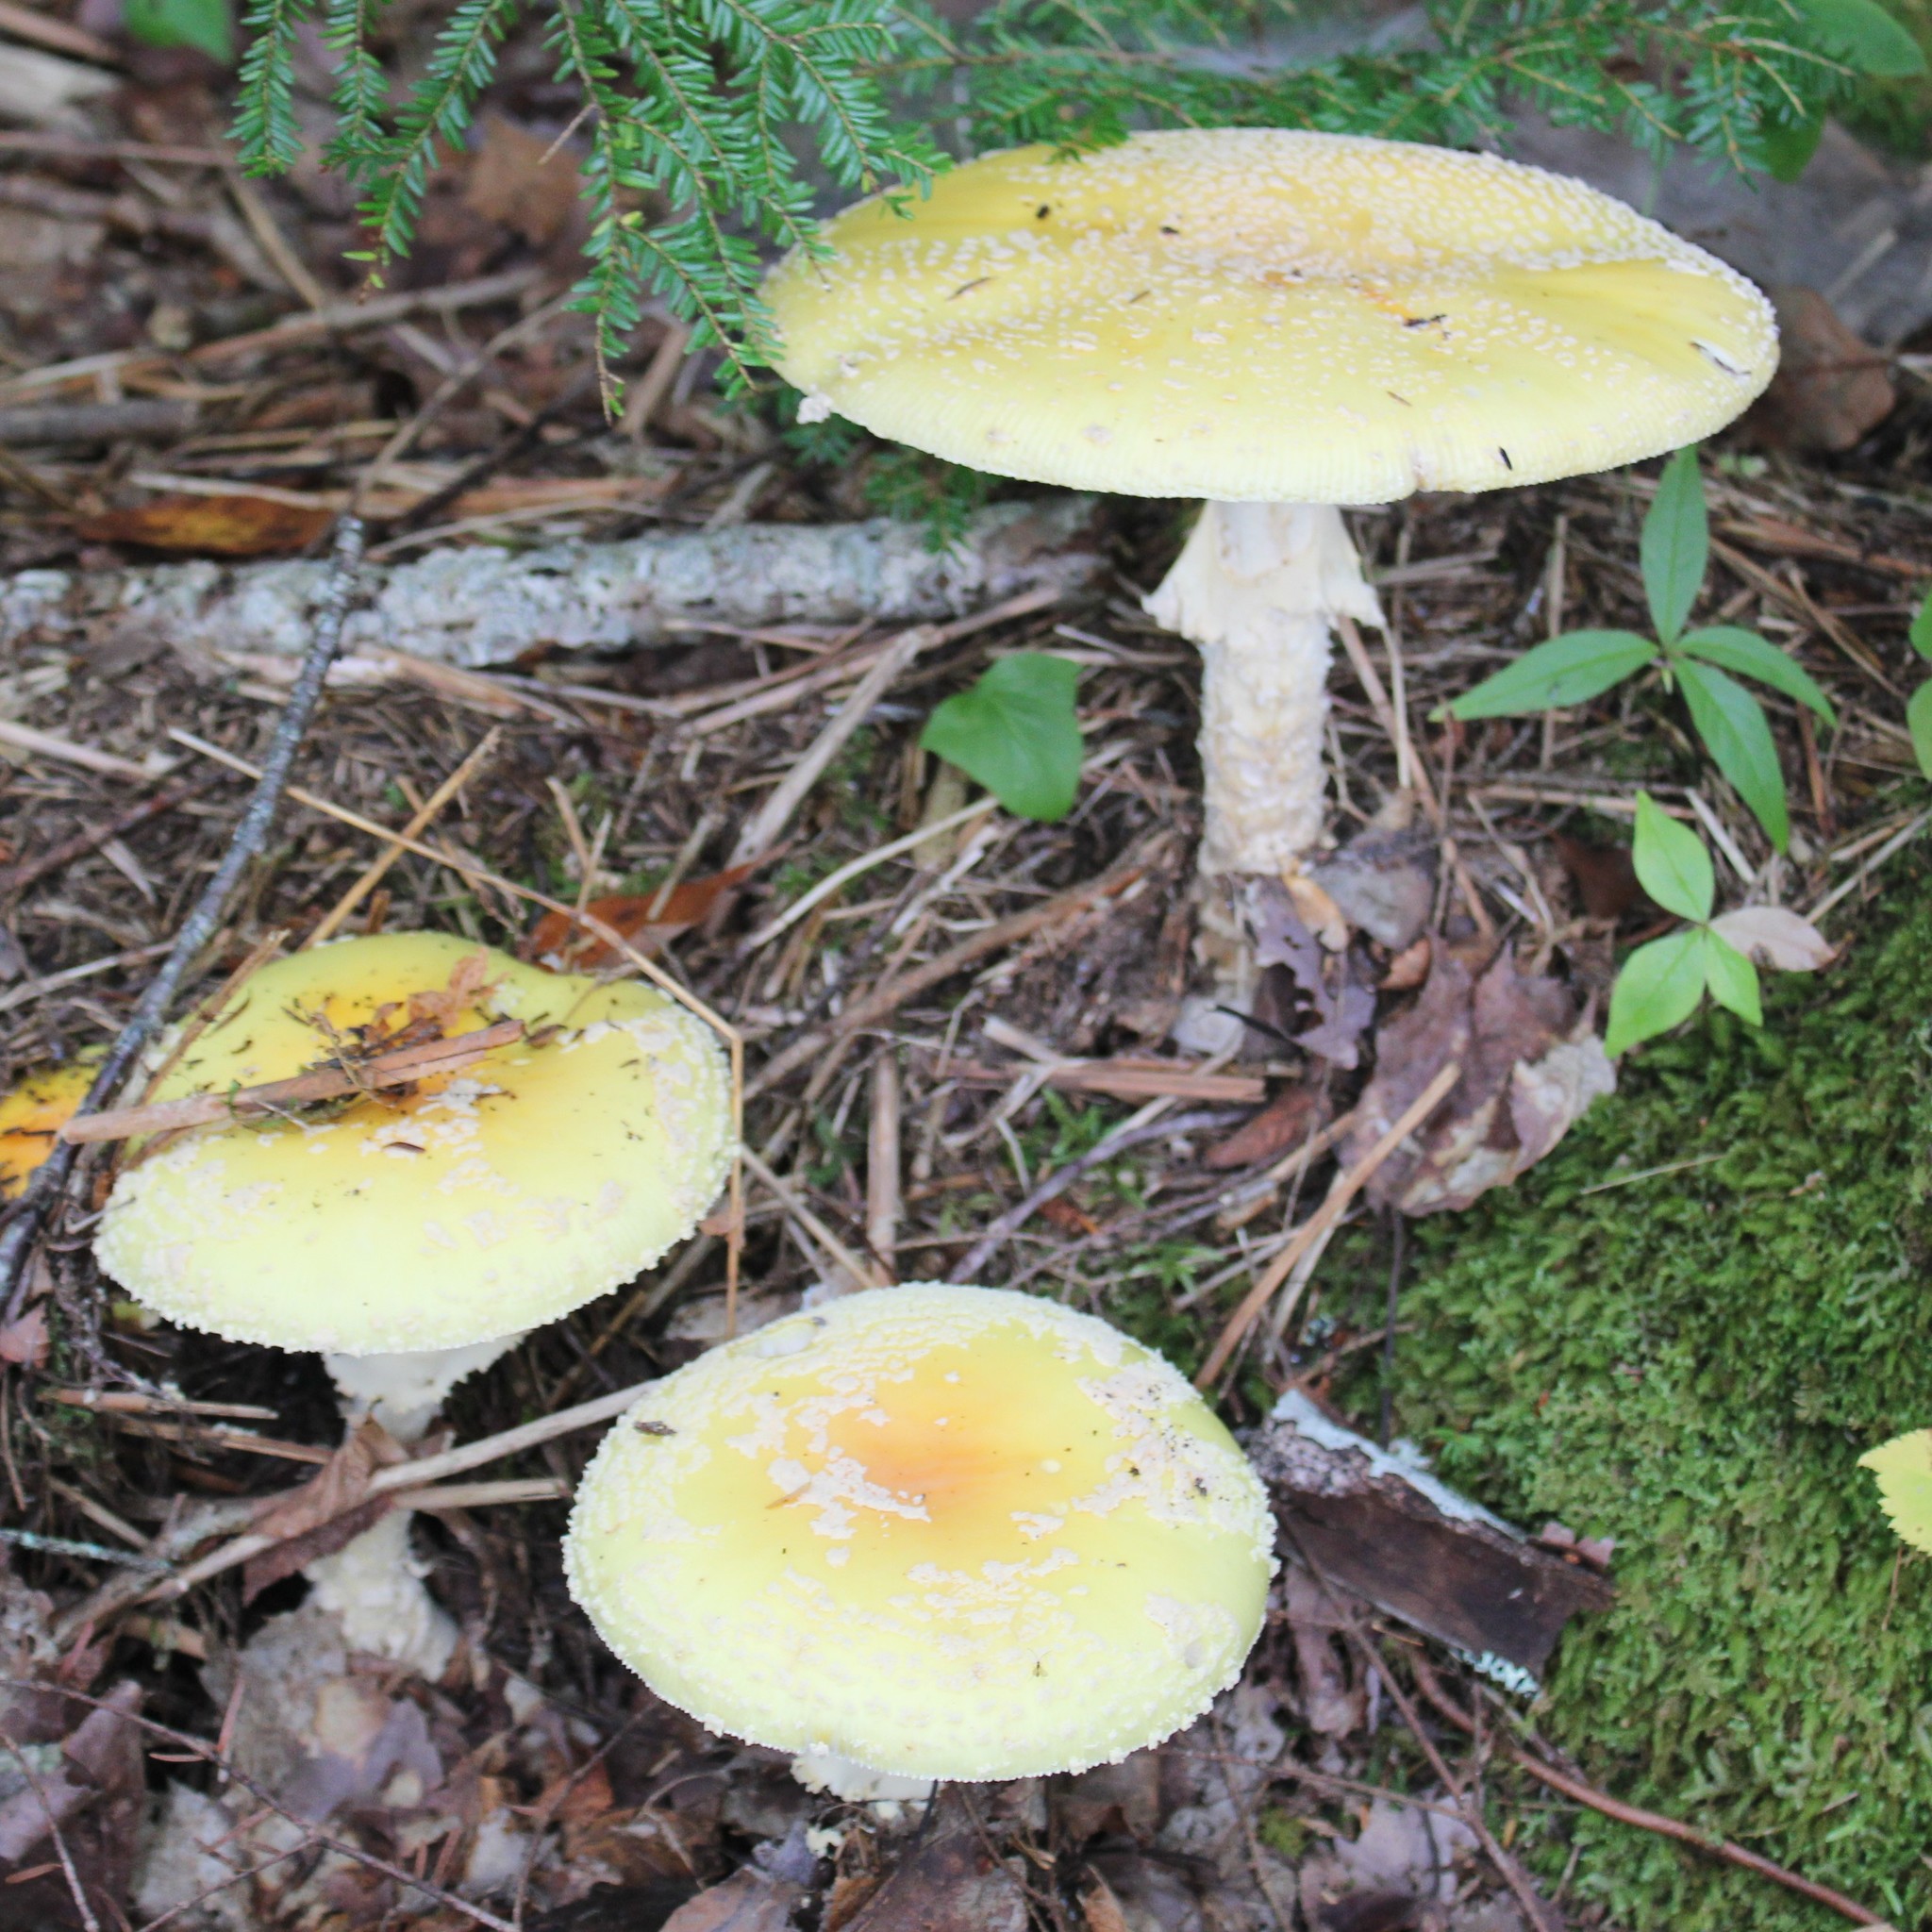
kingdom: Fungi
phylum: Basidiomycota
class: Agaricomycetes
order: Agaricales
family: Amanitaceae
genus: Amanita
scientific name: Amanita muscaria
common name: Fly agaric
